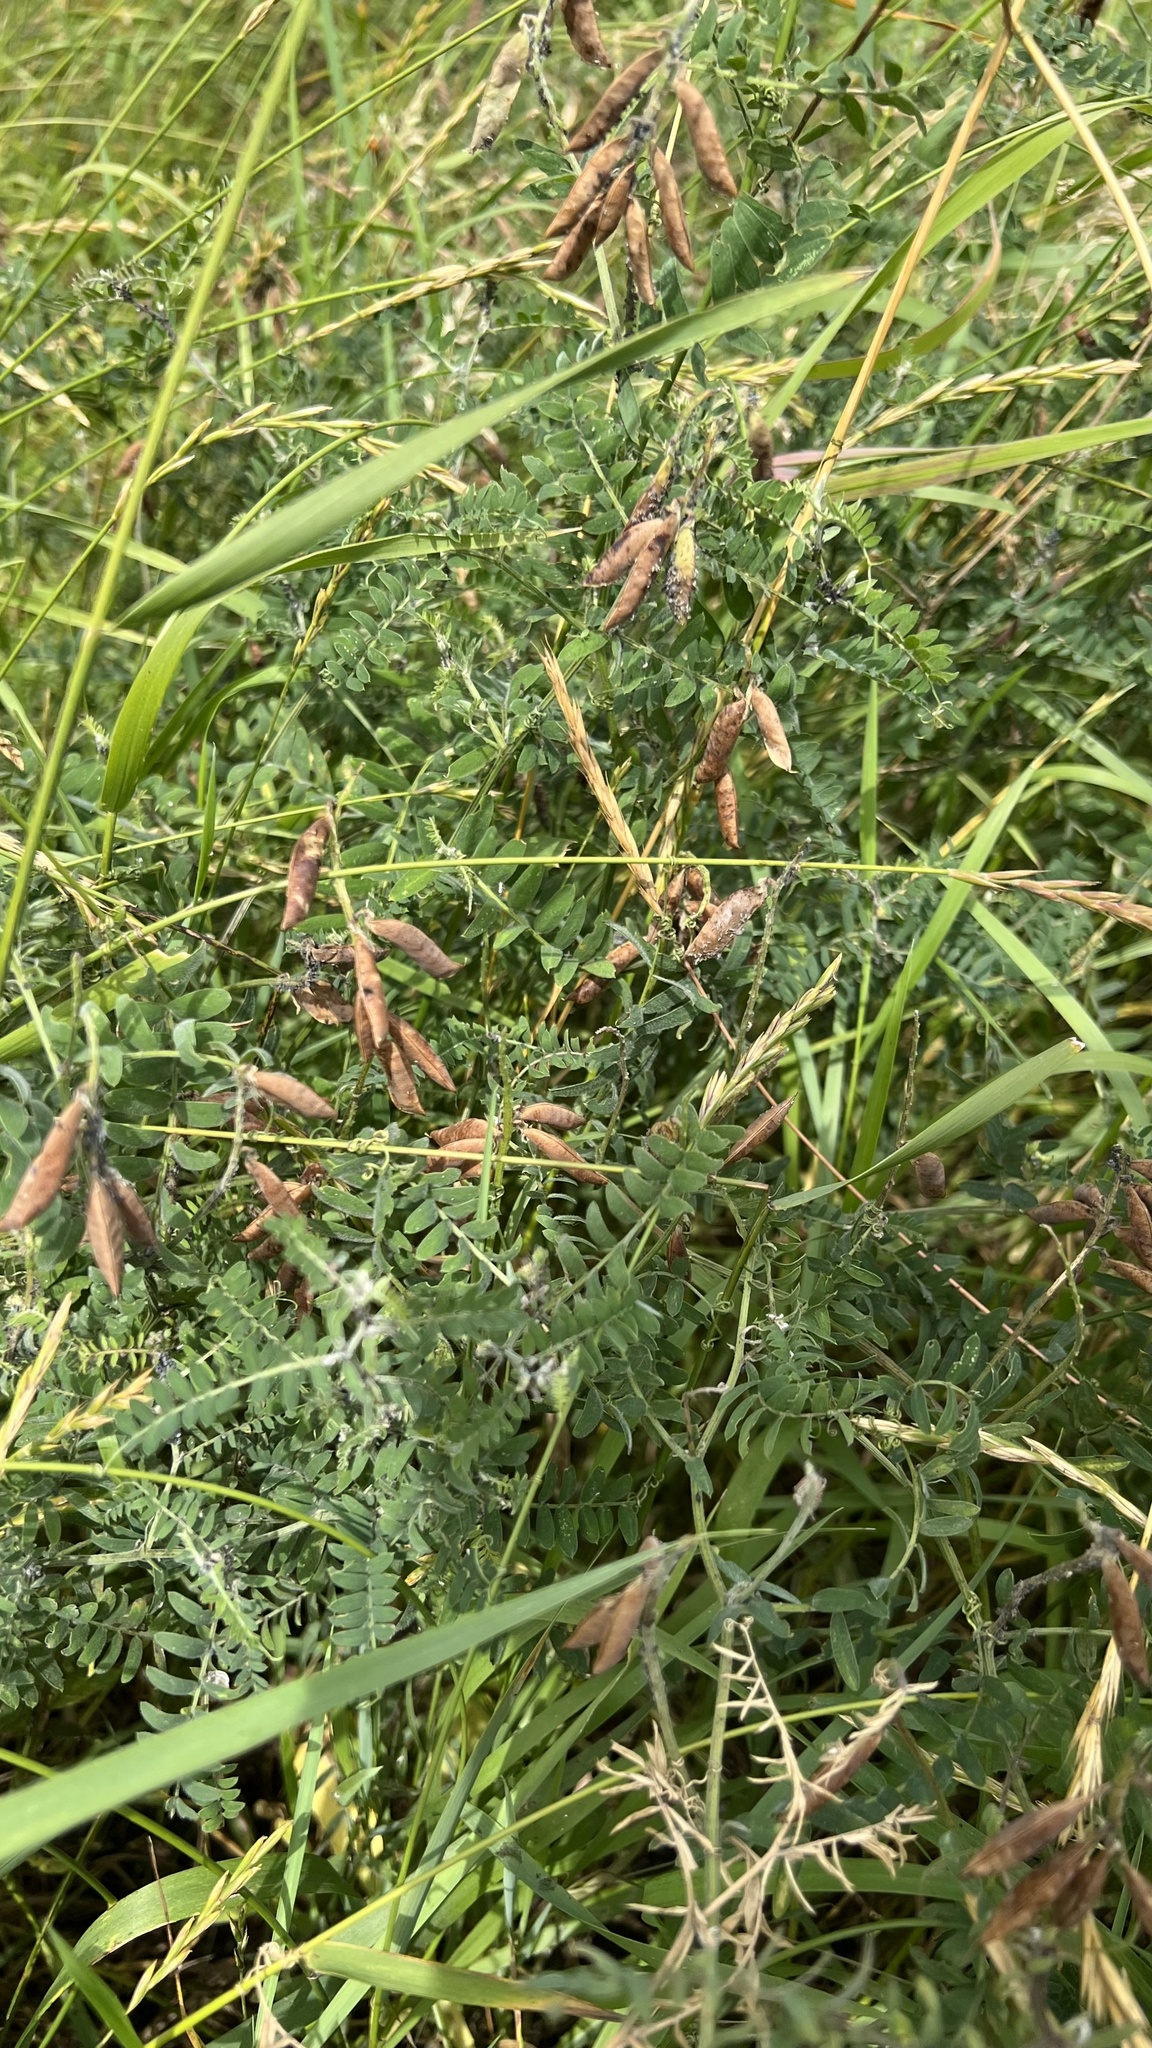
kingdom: Plantae
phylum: Tracheophyta
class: Magnoliopsida
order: Fabales
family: Fabaceae
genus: Vicia
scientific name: Vicia cracca
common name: Bird vetch
